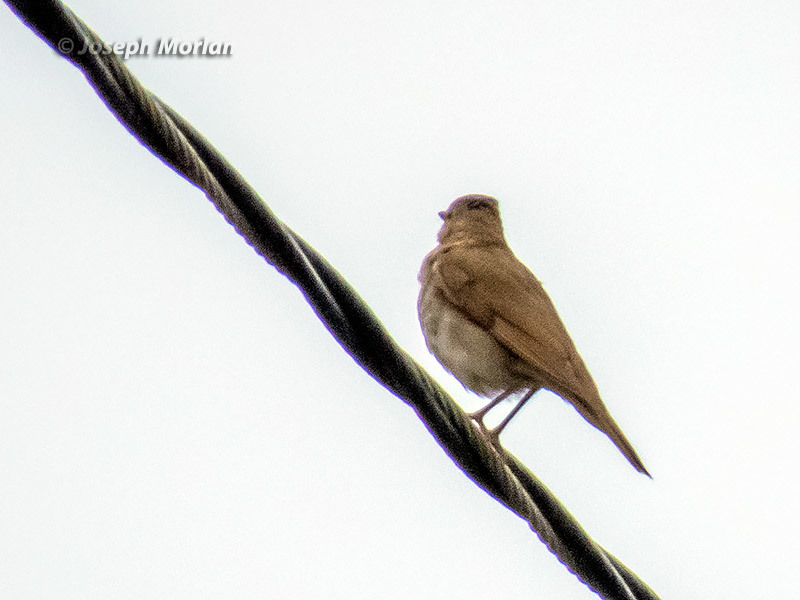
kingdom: Animalia
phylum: Chordata
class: Aves
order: Passeriformes
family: Turdidae
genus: Catharus
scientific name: Catharus ustulatus
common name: Swainson's thrush
